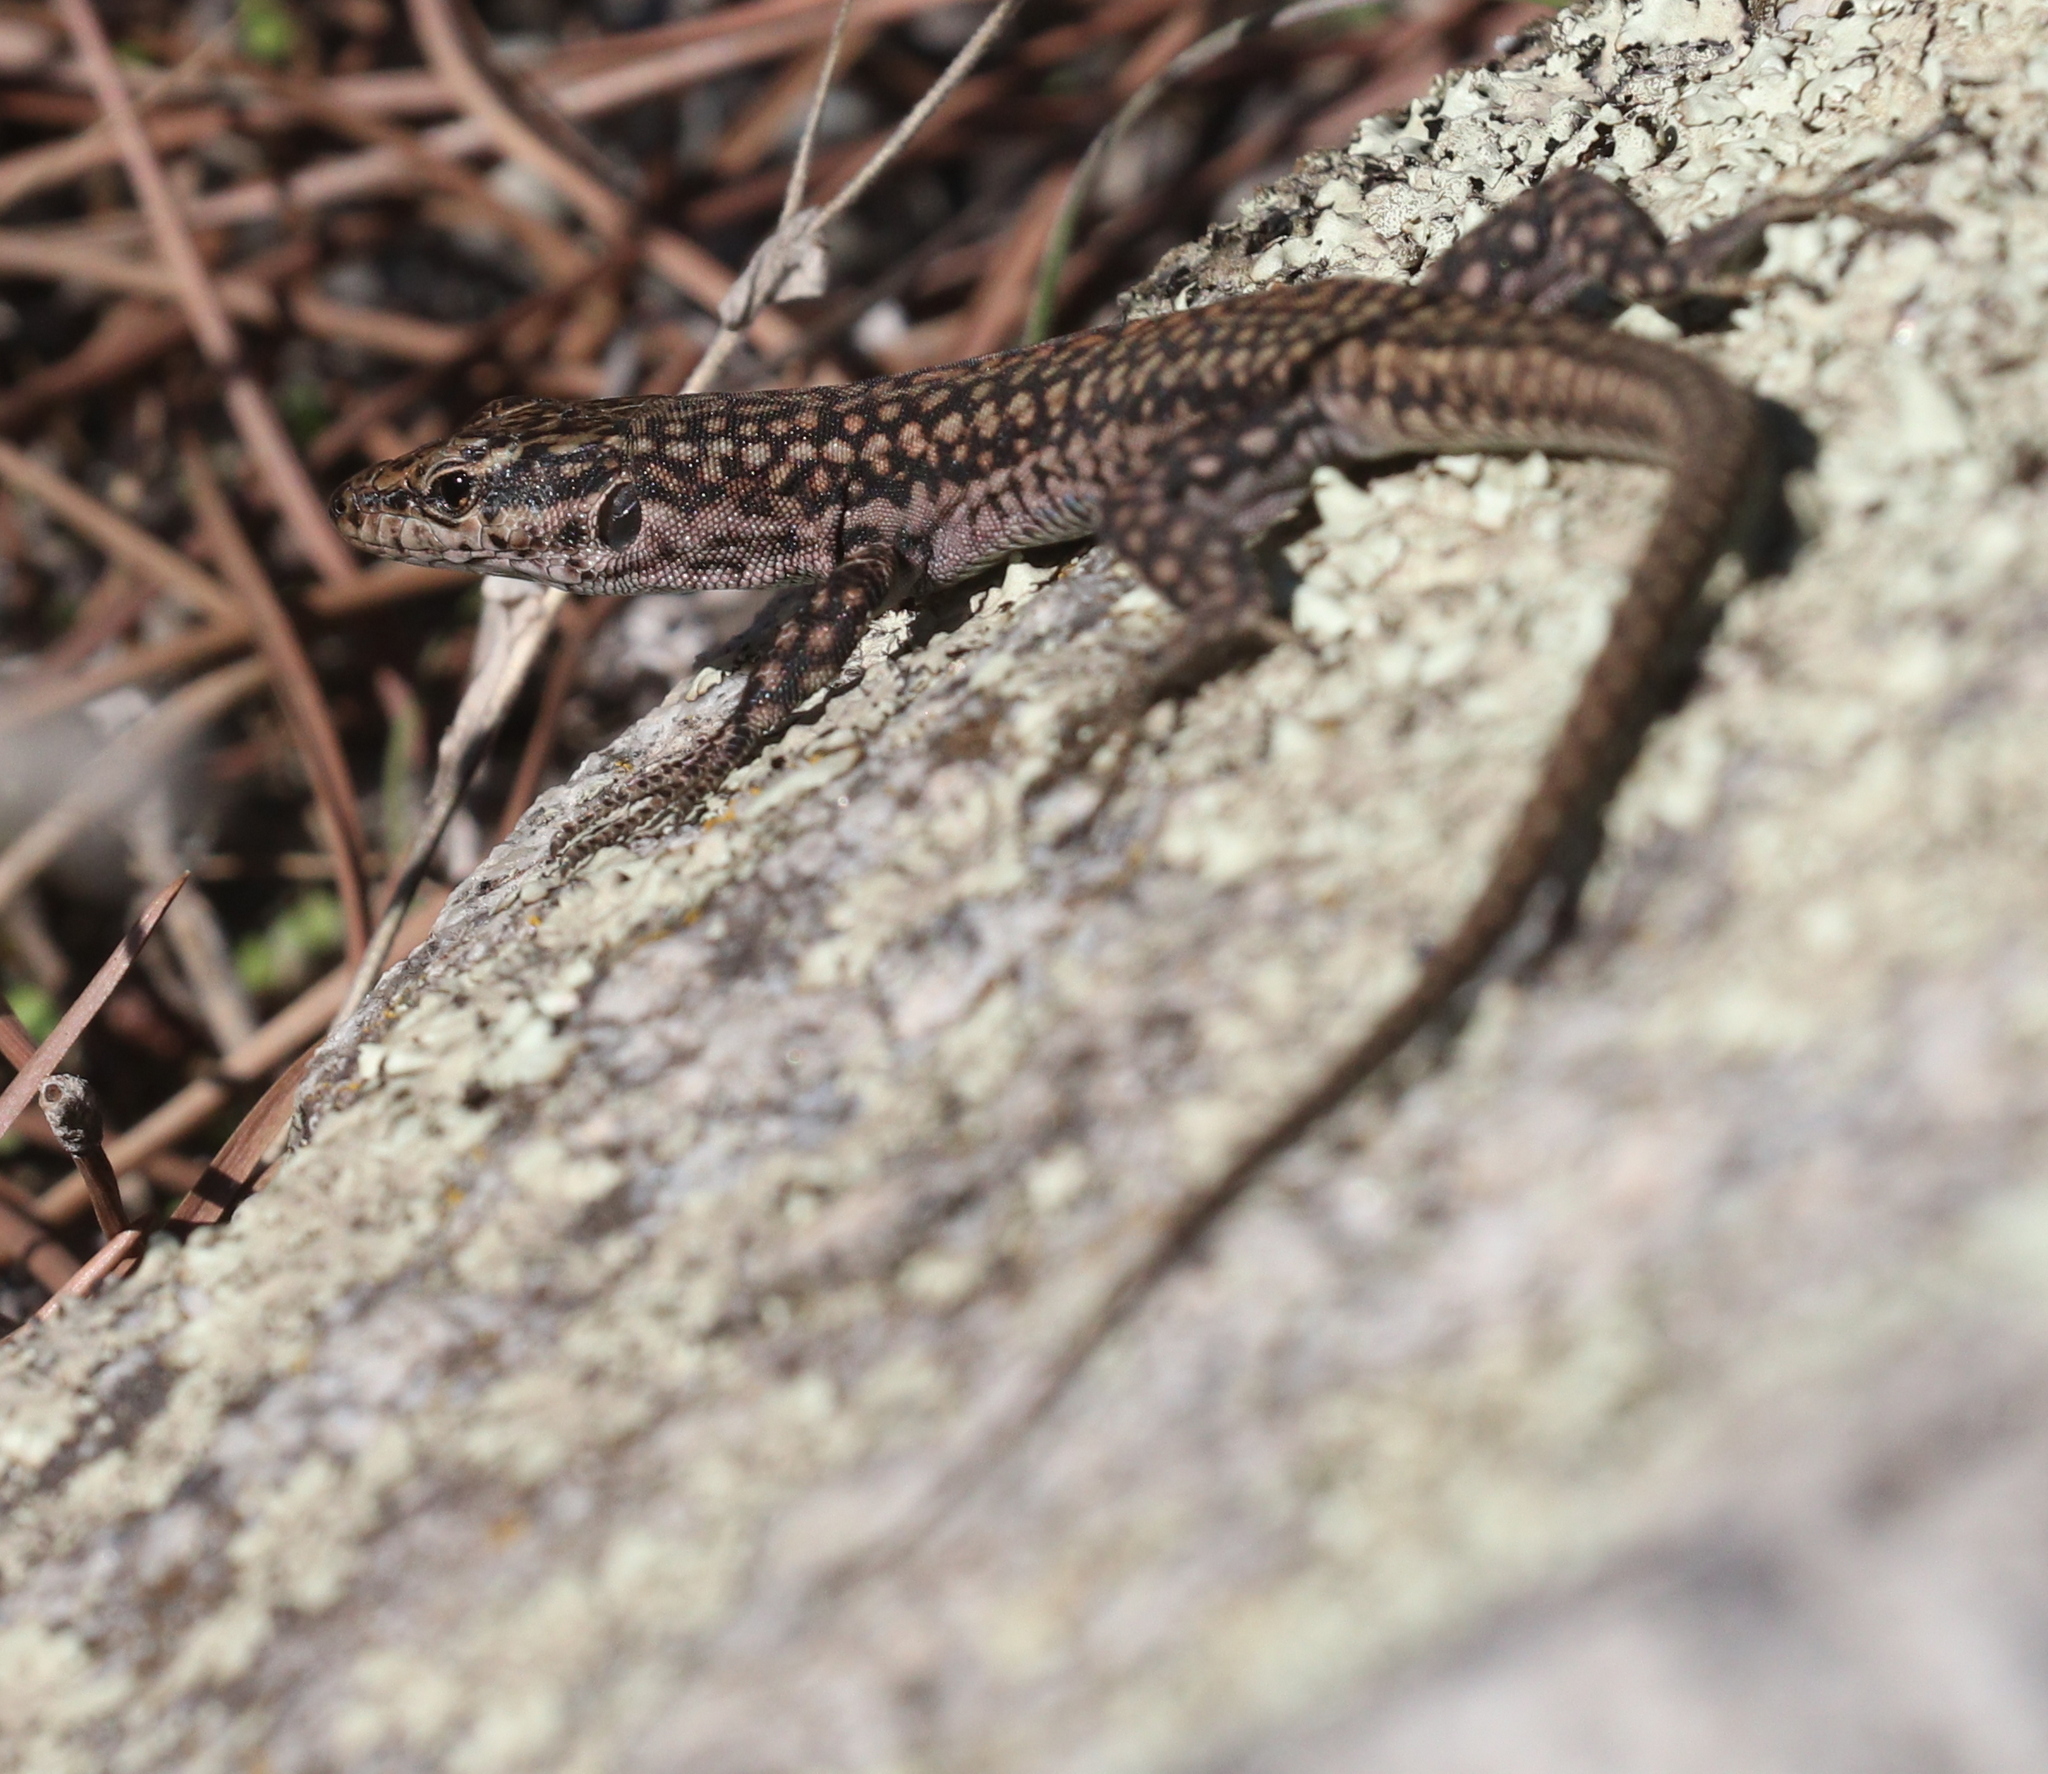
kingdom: Animalia
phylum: Chordata
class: Squamata
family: Lacertidae
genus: Podarcis
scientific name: Podarcis virescens
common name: Geniez’s wall lizard
